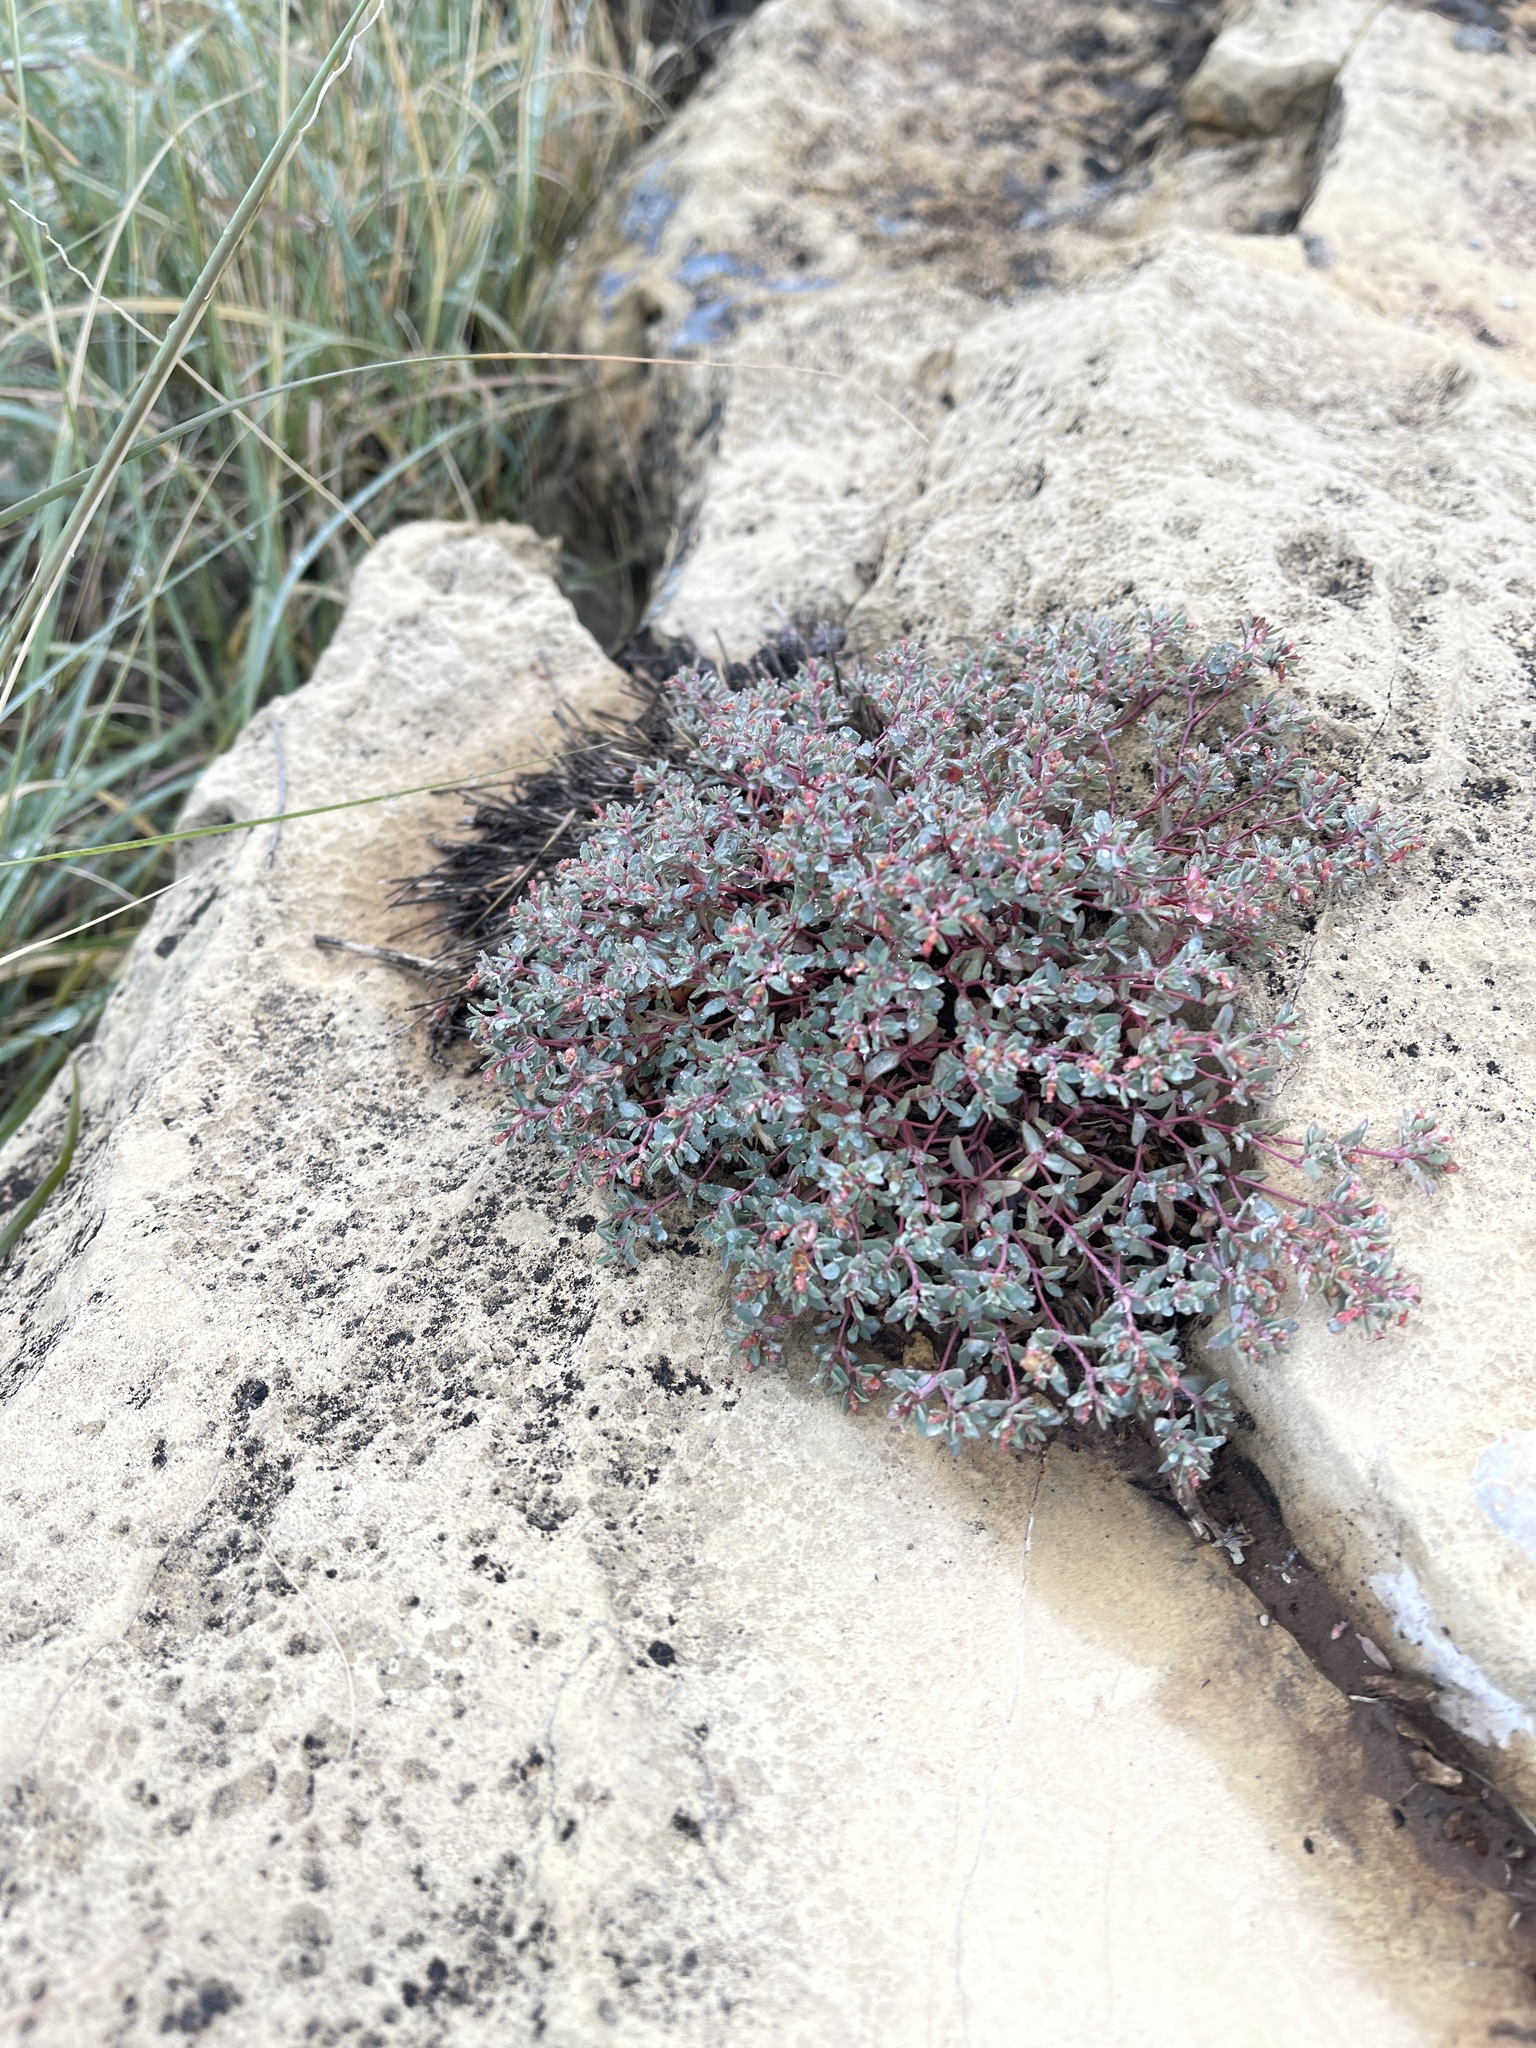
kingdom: Plantae
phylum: Tracheophyta
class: Magnoliopsida
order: Malpighiales
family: Euphorbiaceae
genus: Euphorbia
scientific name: Euphorbia fendleri
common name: Fendler's euphorbia
